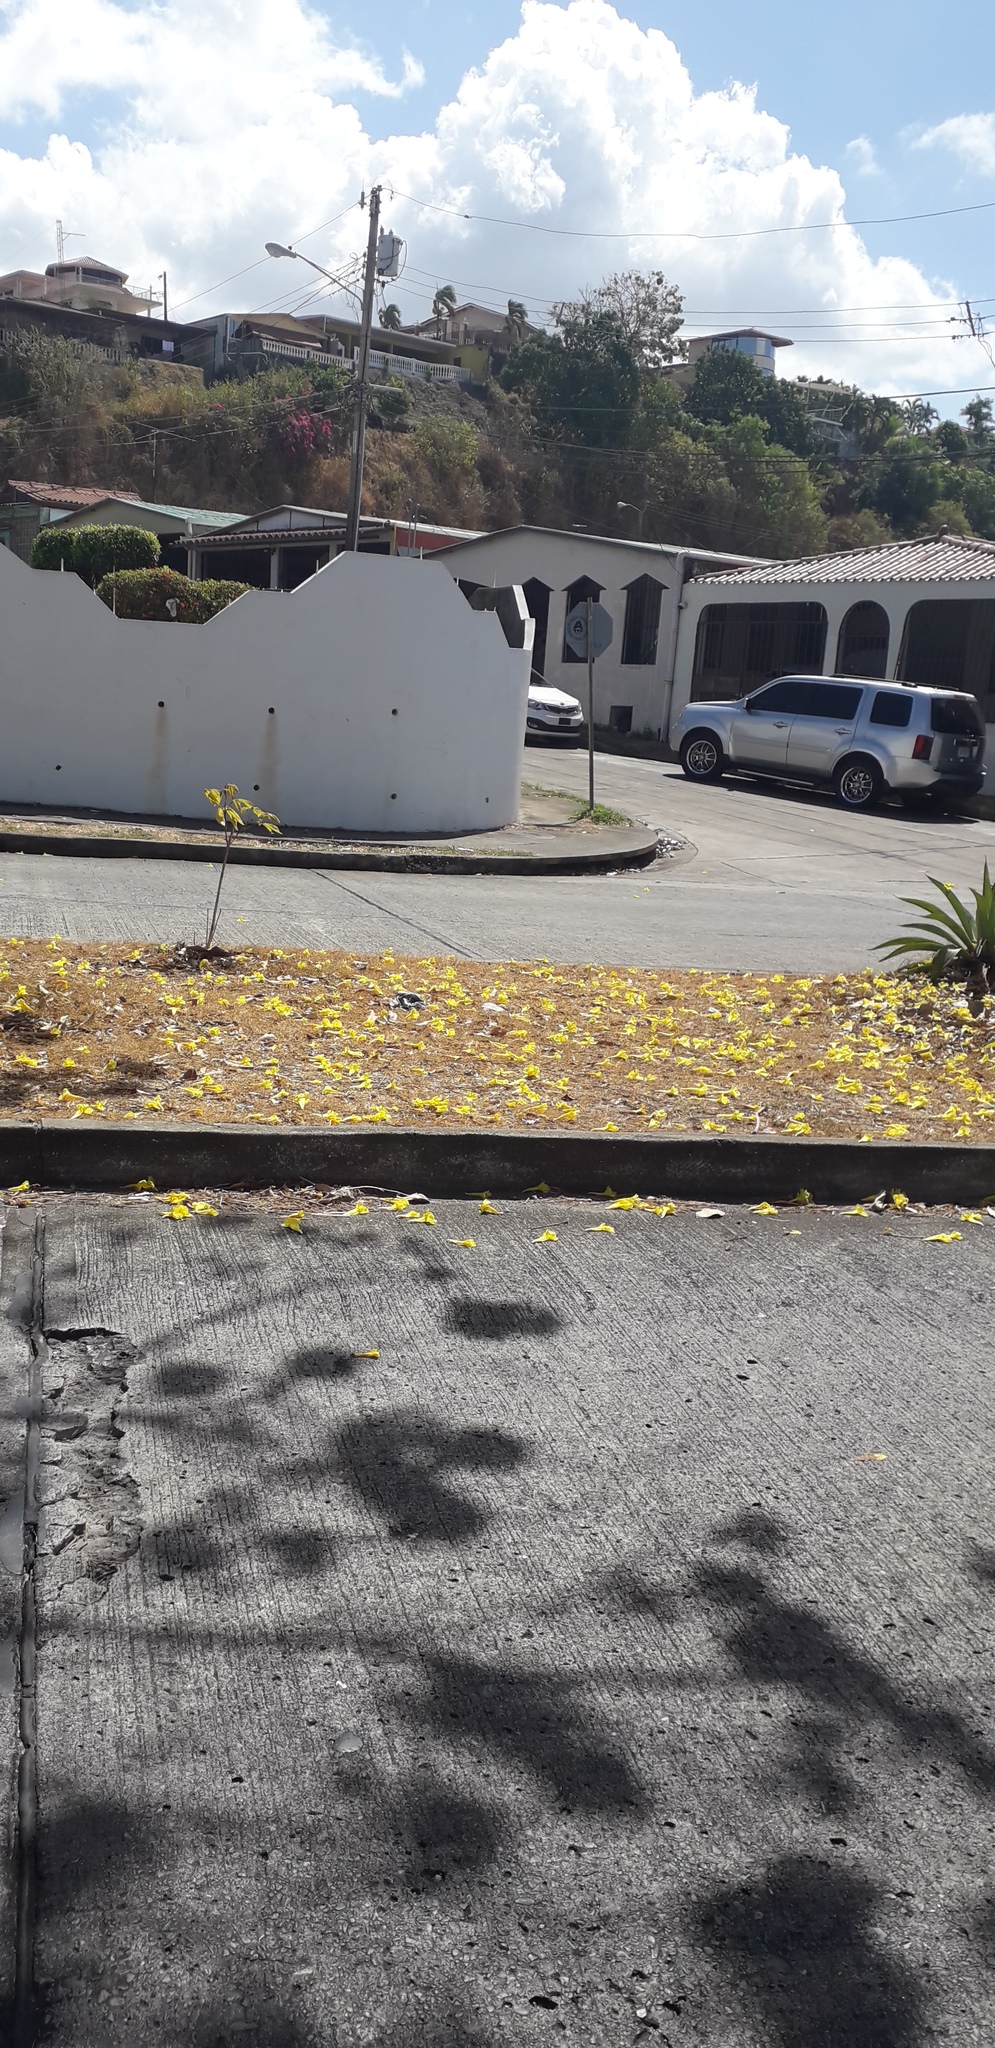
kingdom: Plantae
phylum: Tracheophyta
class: Magnoliopsida
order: Lamiales
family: Bignoniaceae
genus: Handroanthus
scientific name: Handroanthus guayacan
